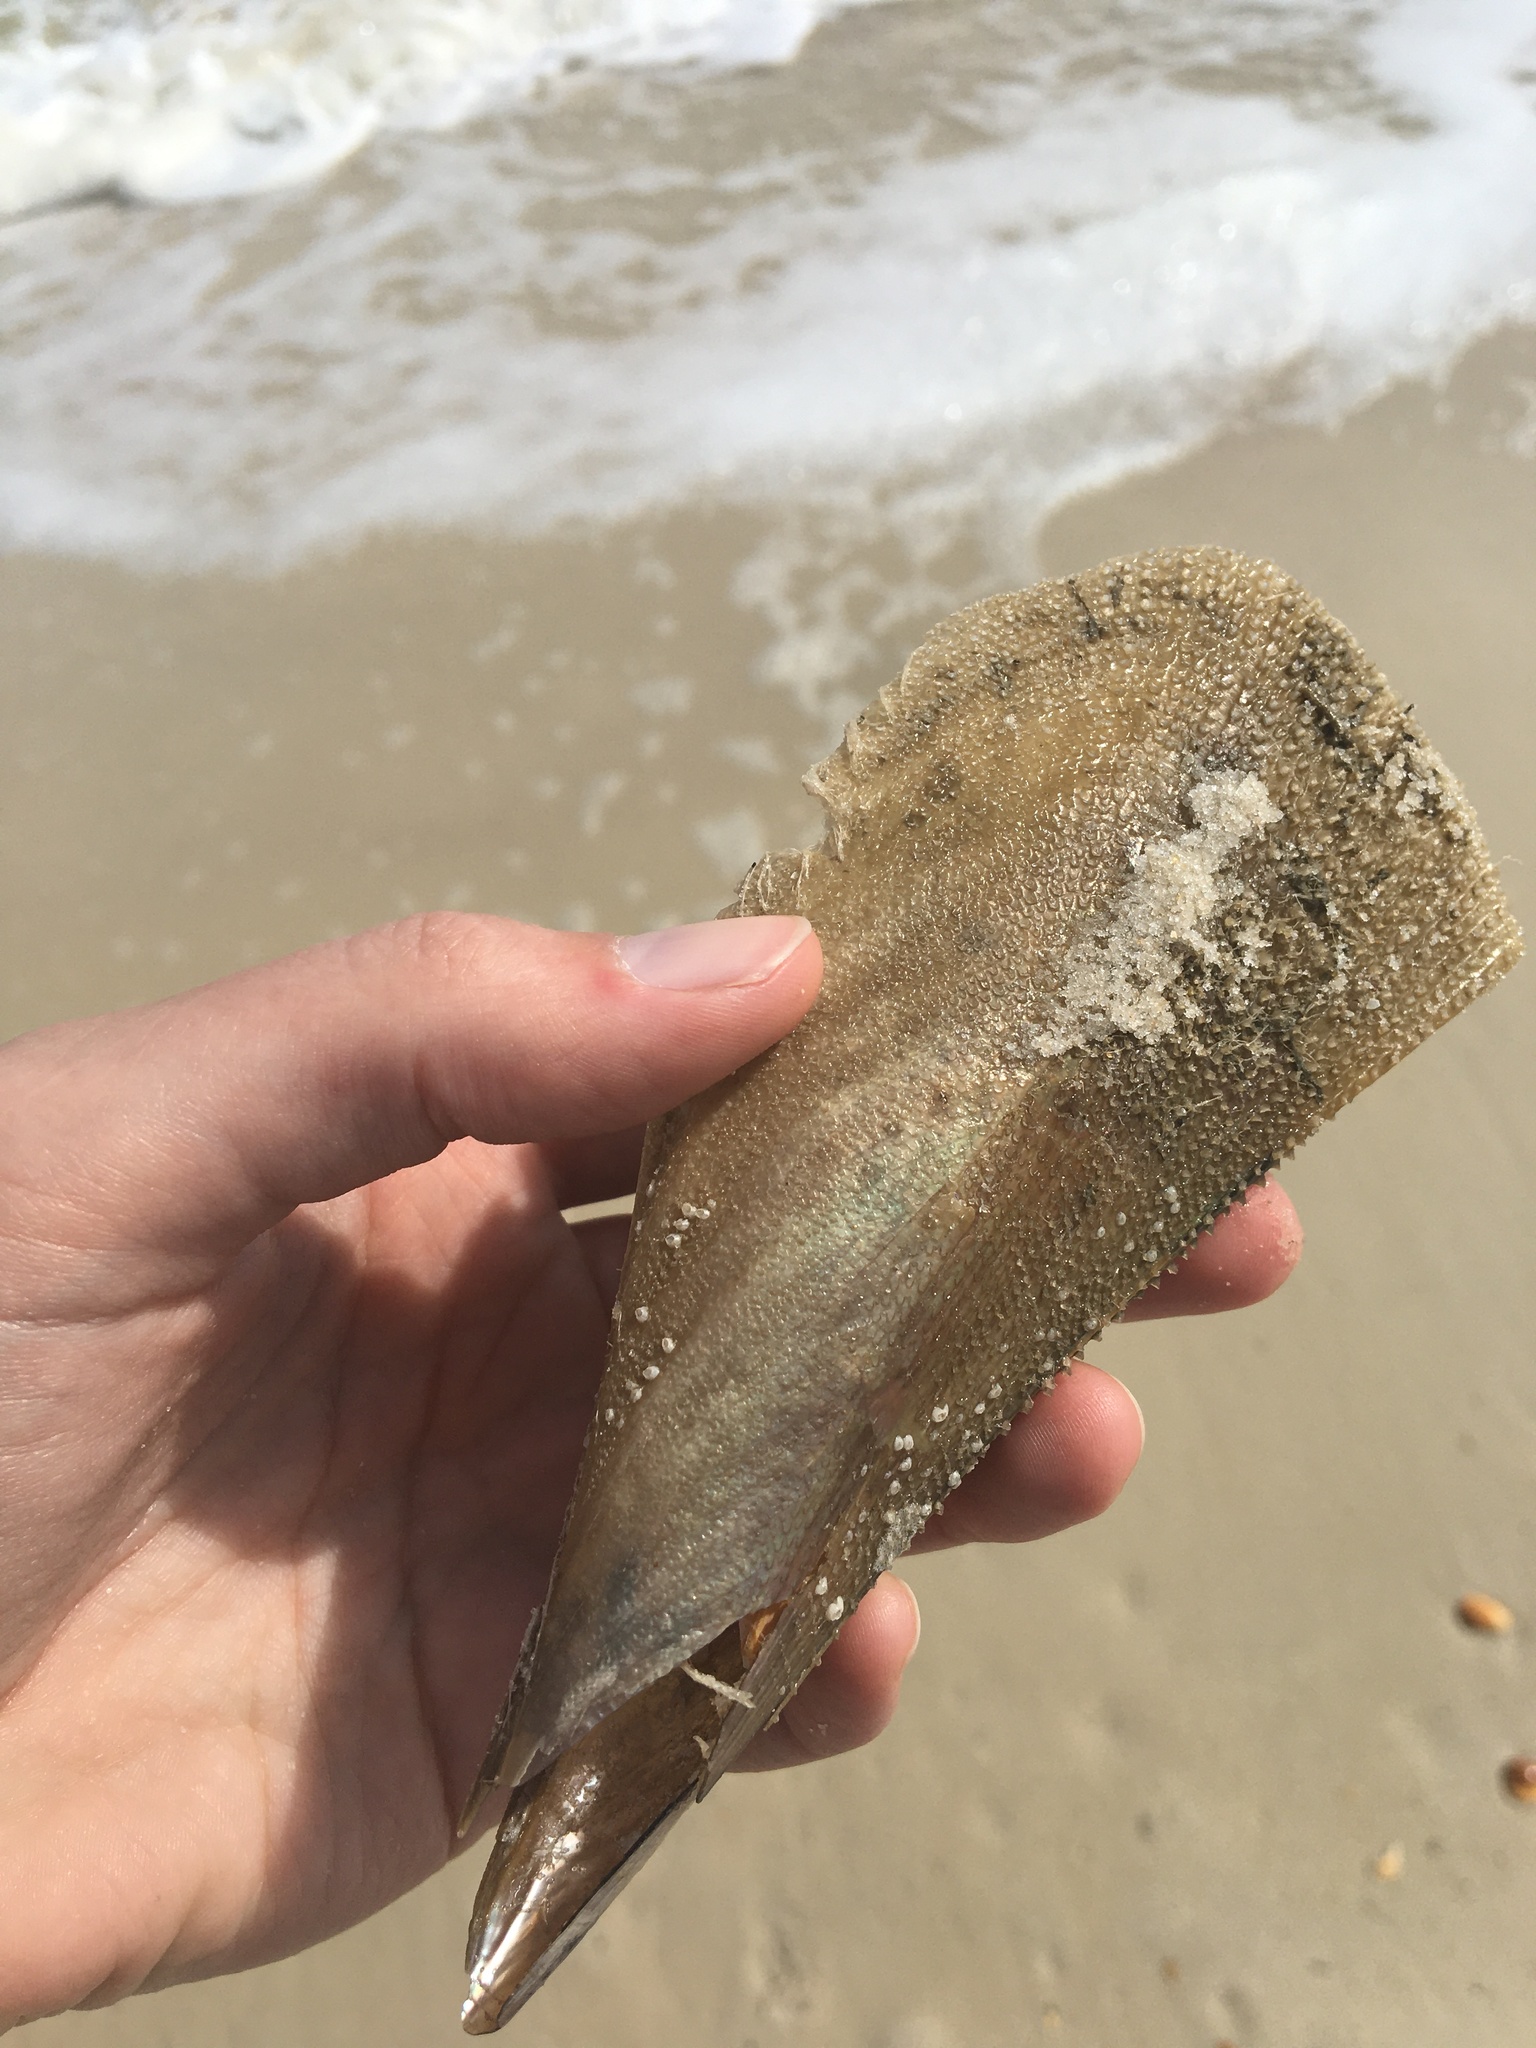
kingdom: Animalia
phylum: Mollusca
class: Bivalvia
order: Ostreida
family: Pinnidae
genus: Atrina
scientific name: Atrina serrata
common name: Saw-toothed penshell
